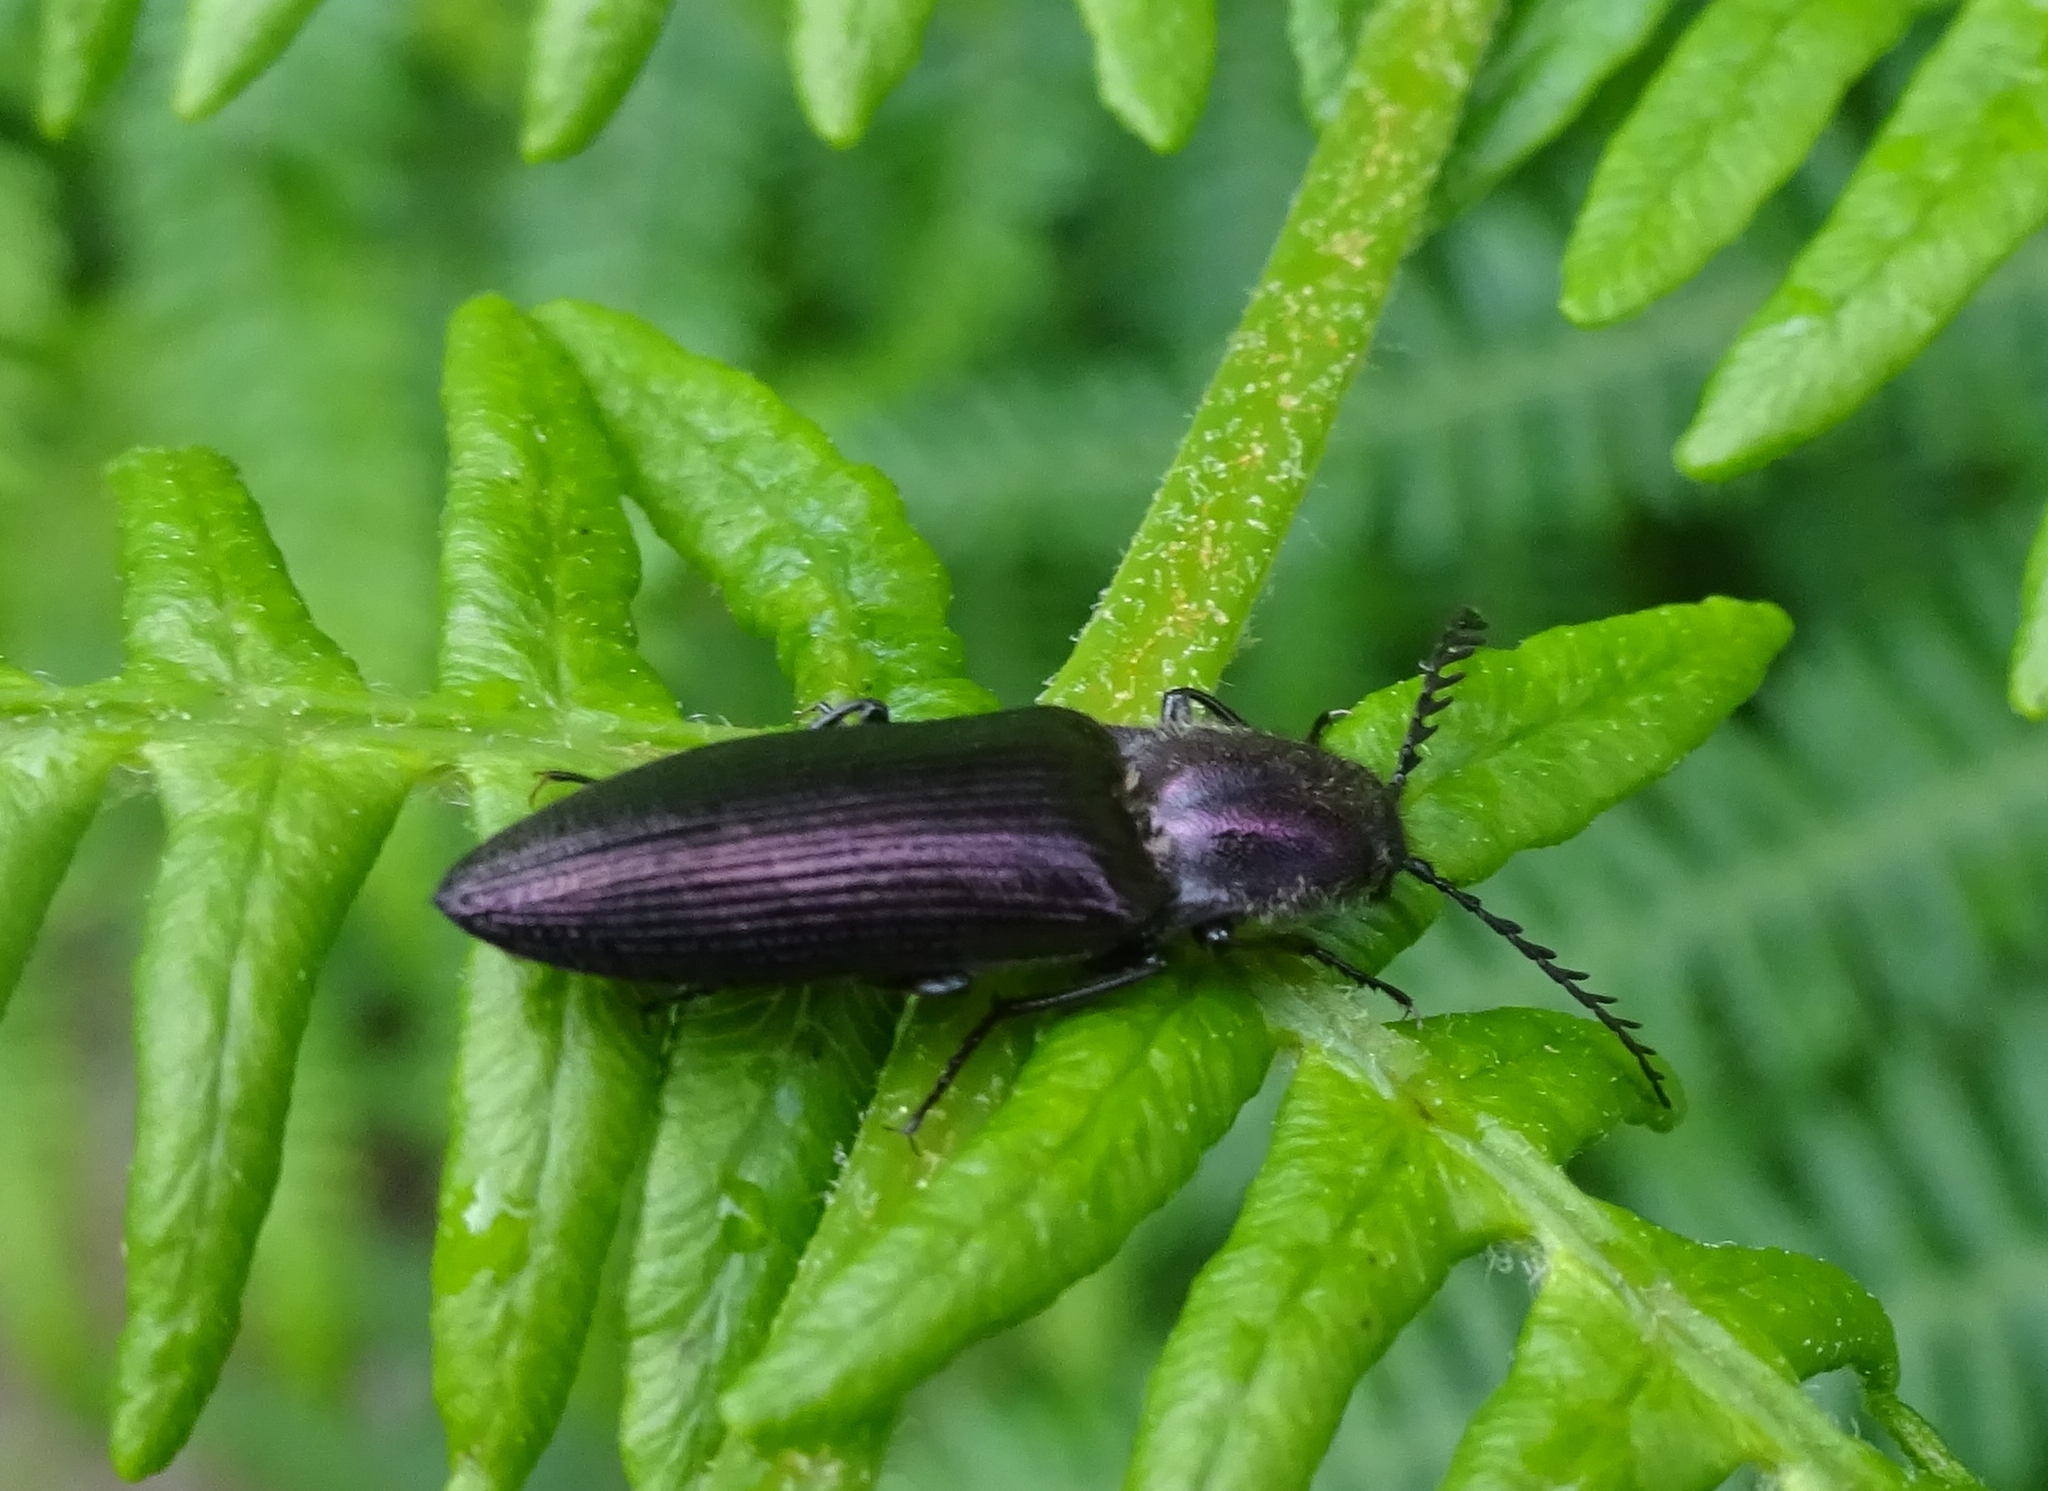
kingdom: Animalia
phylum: Arthropoda
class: Insecta
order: Coleoptera
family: Elateridae
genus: Ctenicera
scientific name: Ctenicera cuprea
